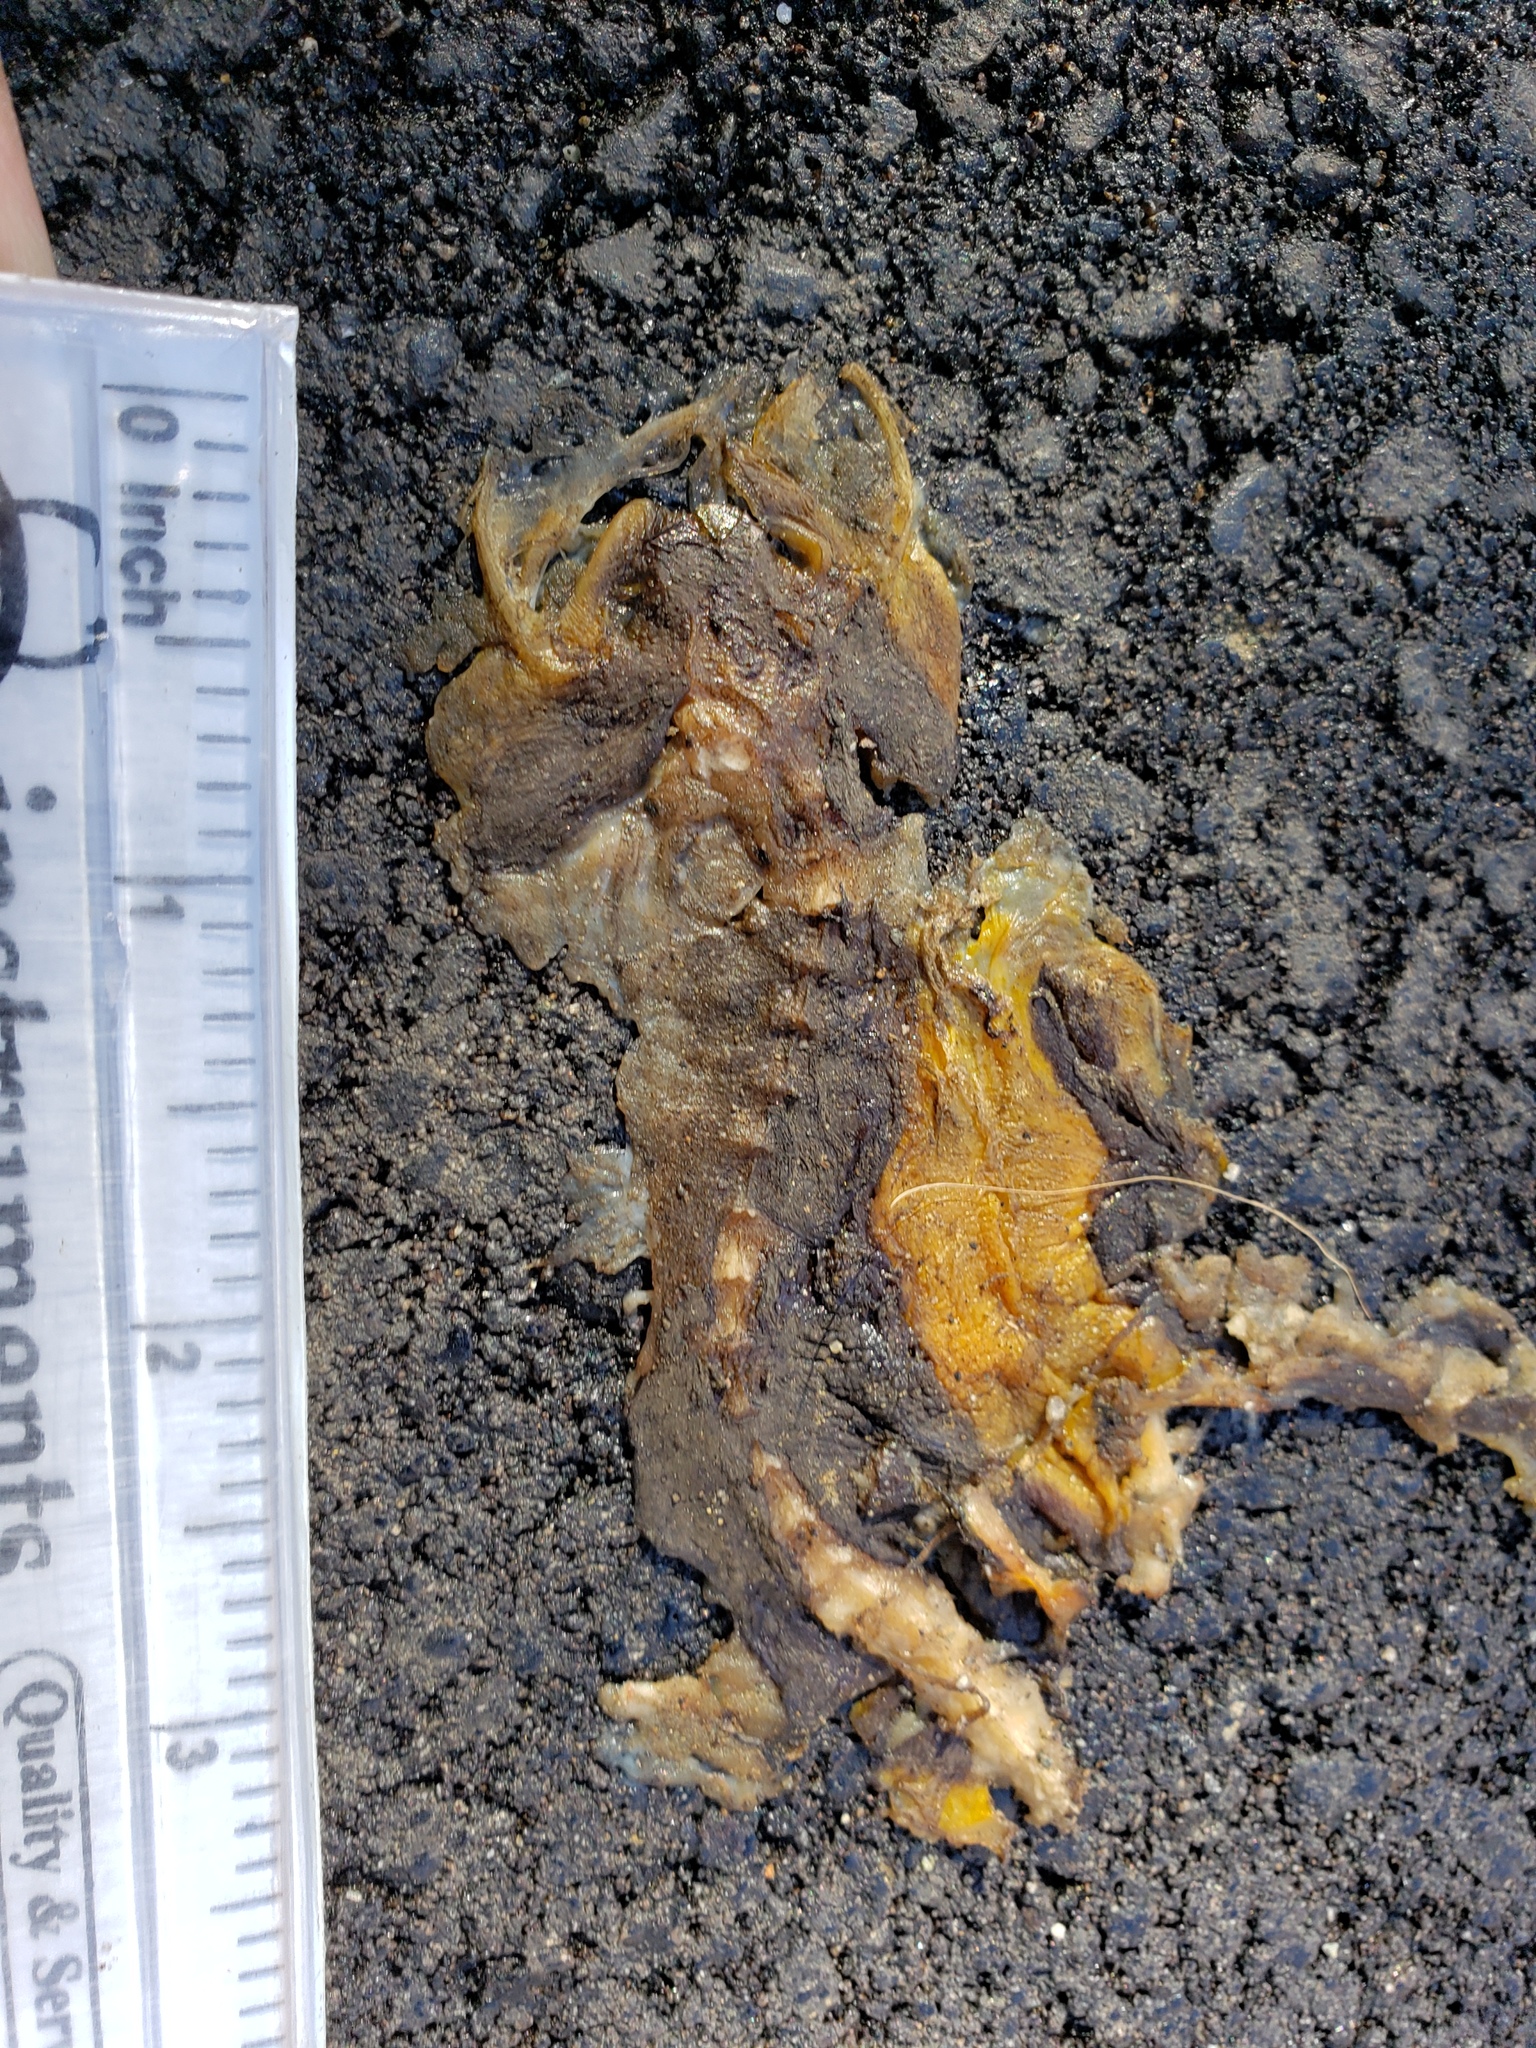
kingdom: Animalia
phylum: Chordata
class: Amphibia
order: Caudata
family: Salamandridae
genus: Taricha
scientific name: Taricha
